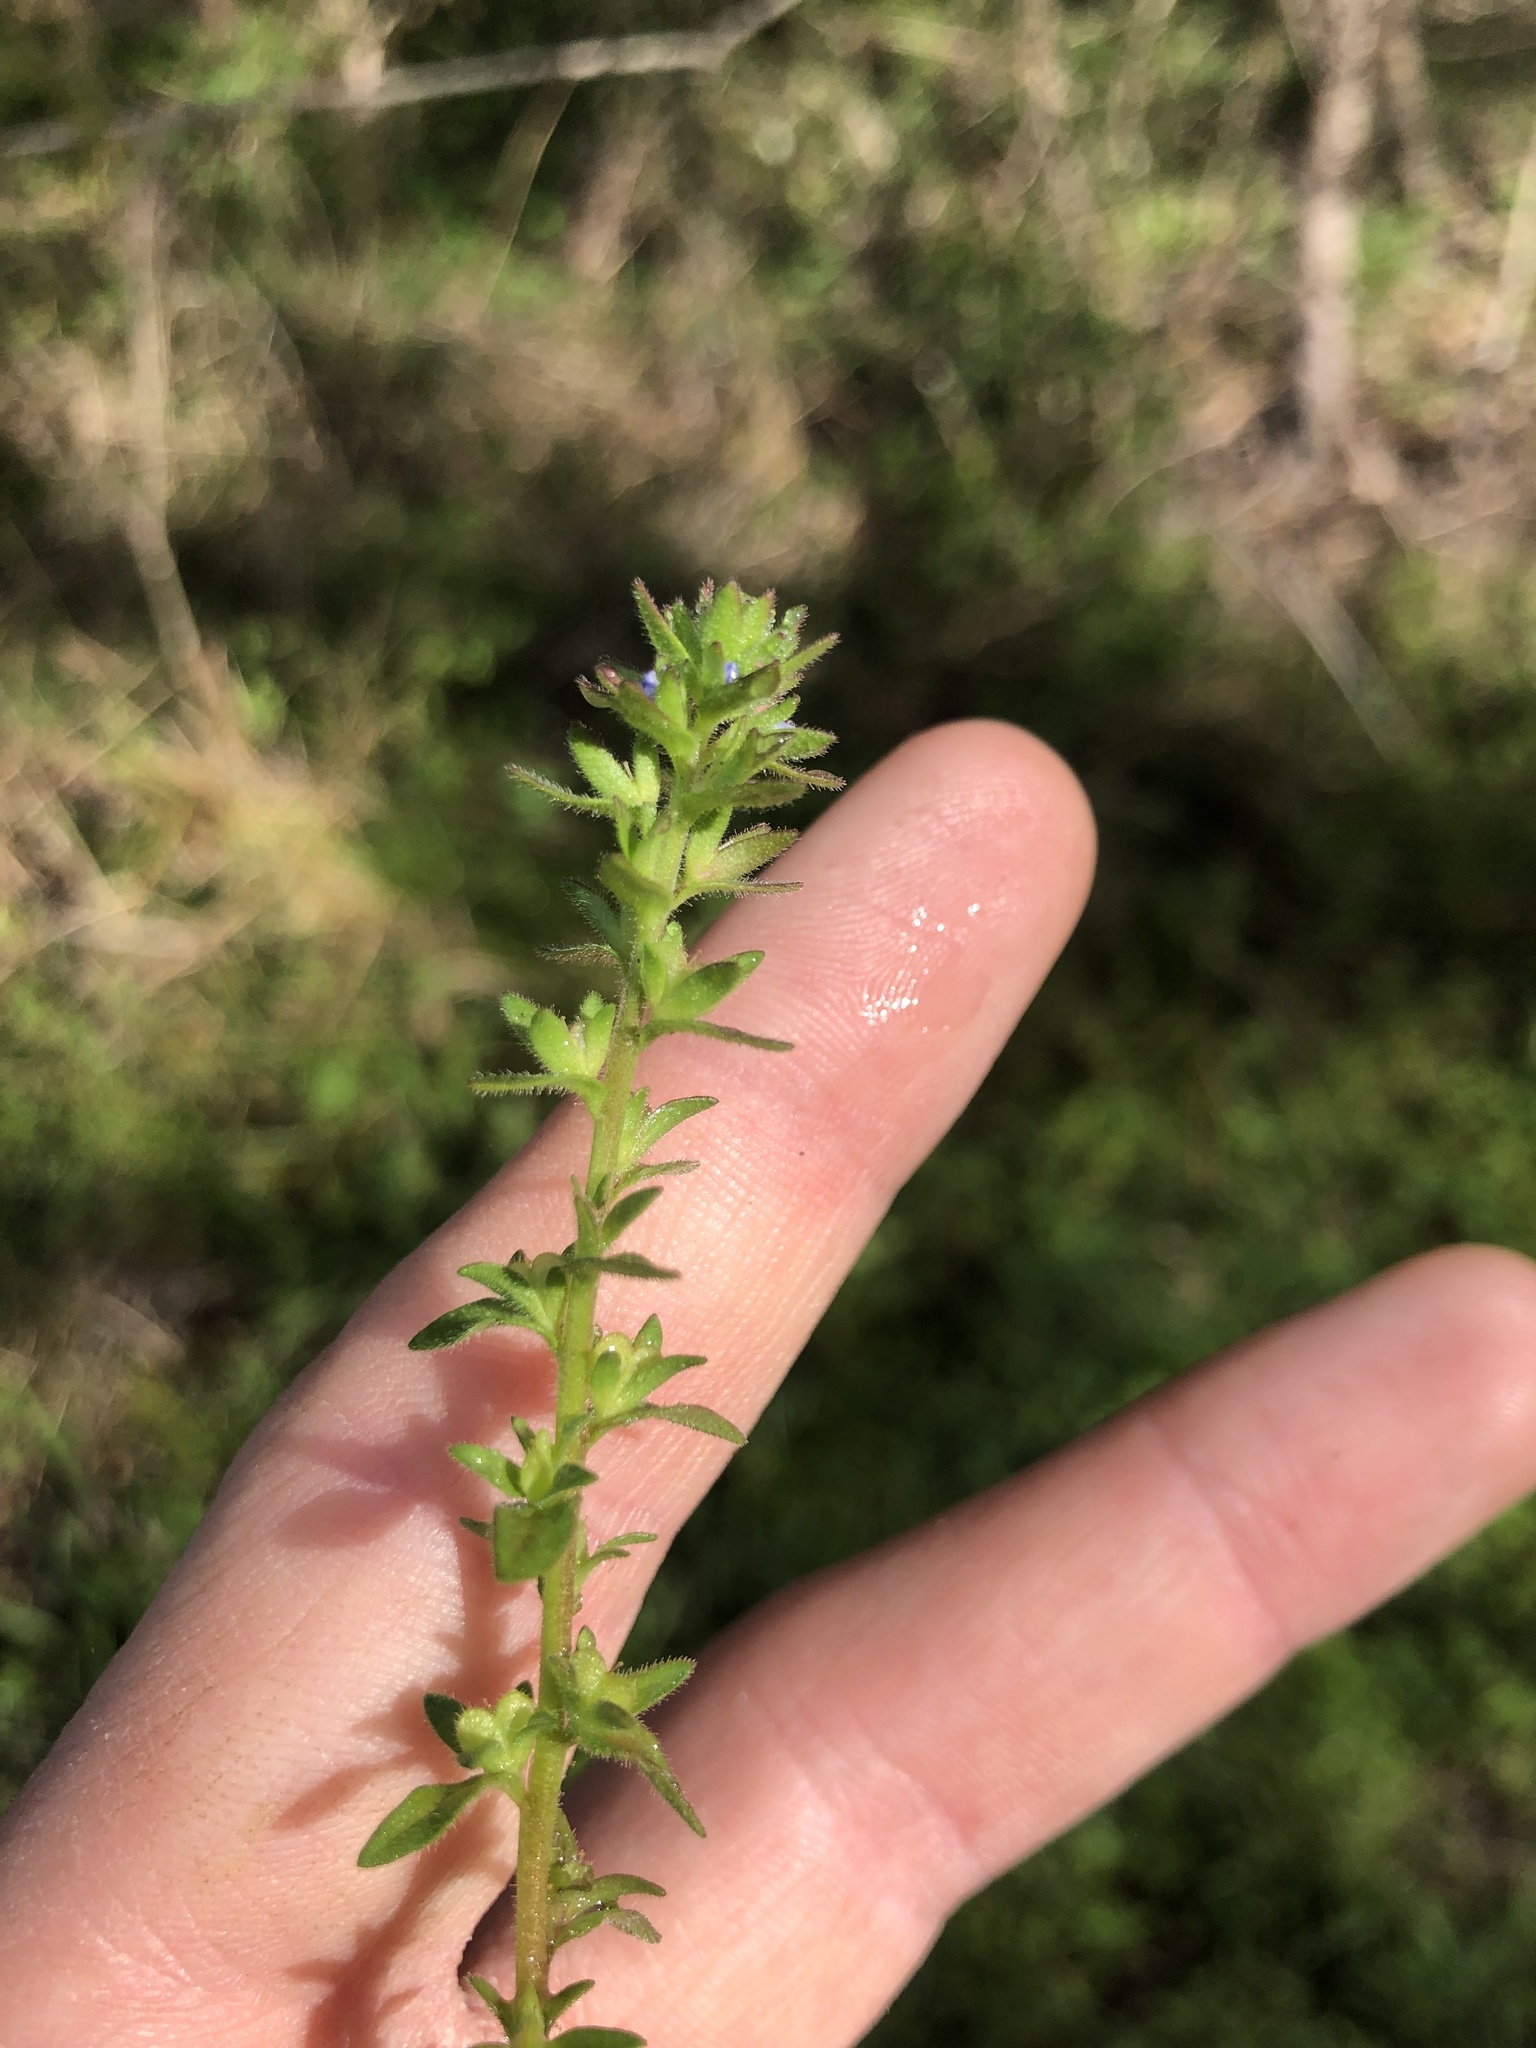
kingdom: Plantae
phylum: Tracheophyta
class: Magnoliopsida
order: Lamiales
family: Plantaginaceae
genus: Veronica
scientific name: Veronica arvensis
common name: Corn speedwell
